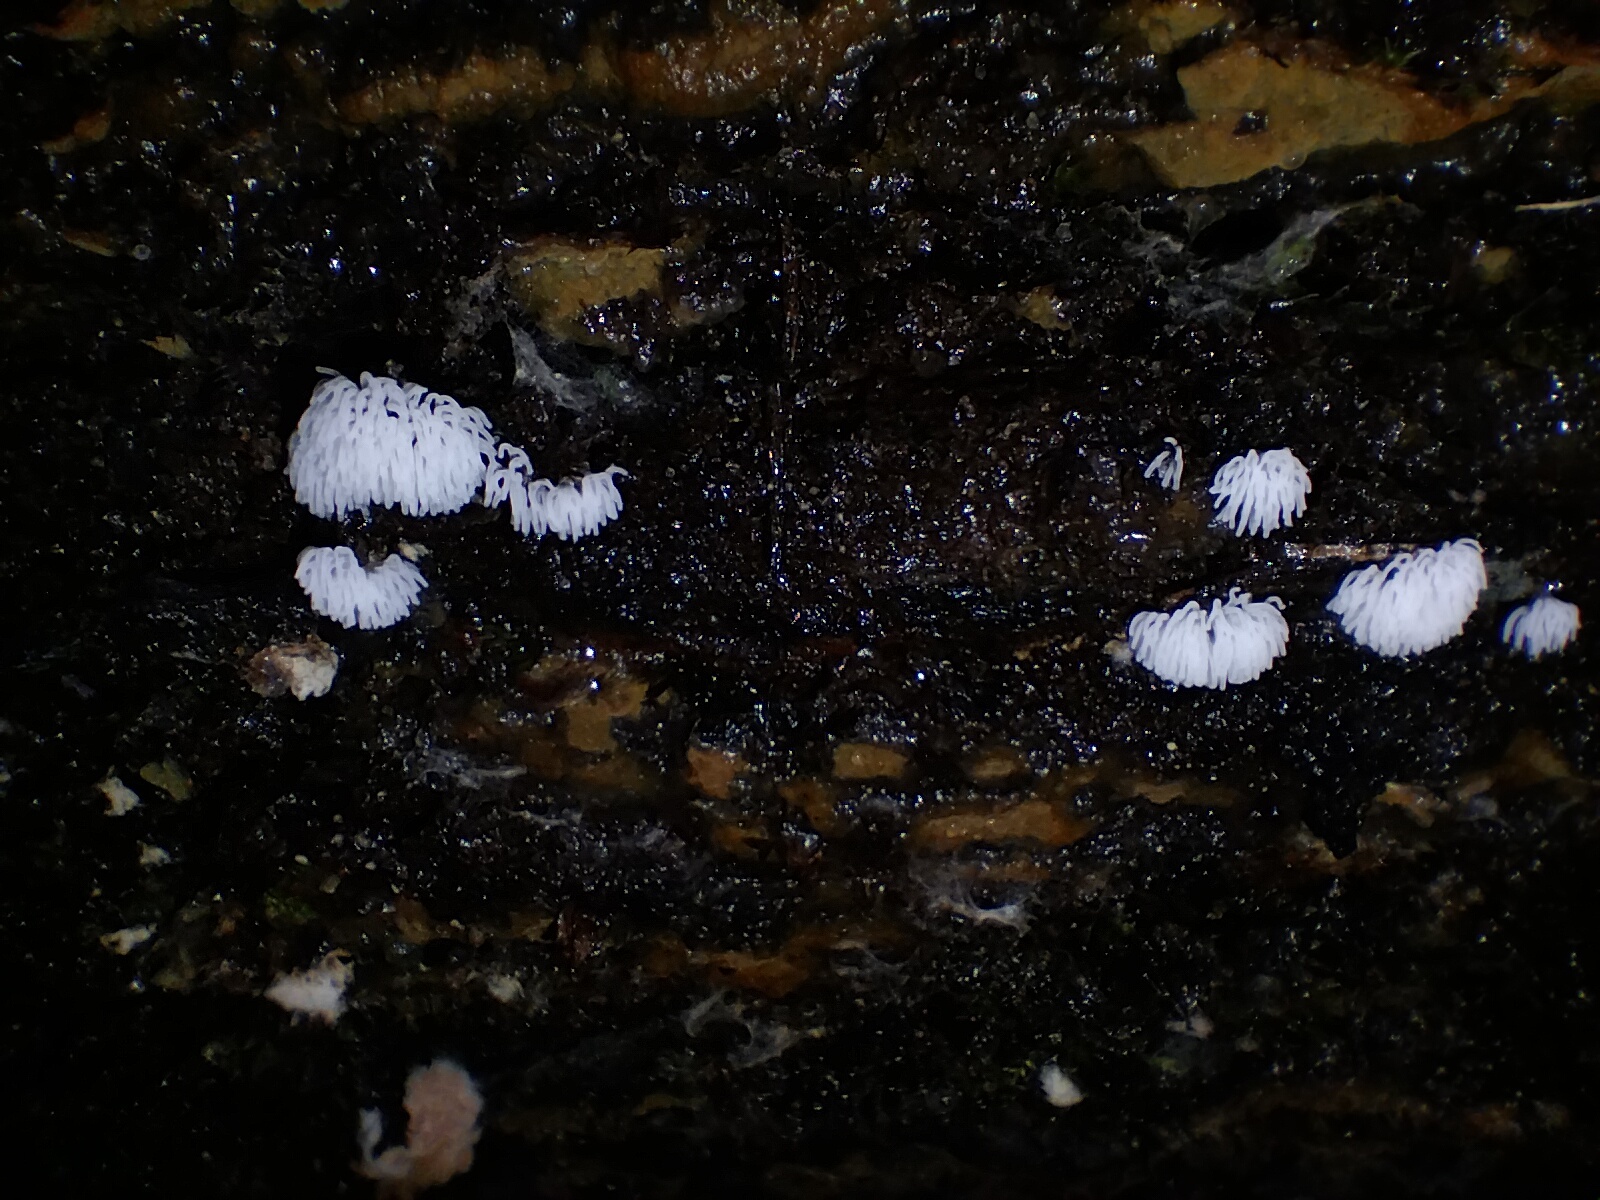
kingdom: Protozoa
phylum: Mycetozoa
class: Protosteliomycetes
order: Ceratiomyxales
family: Ceratiomyxaceae
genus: Ceratiomyxa
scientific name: Ceratiomyxa fruticulosa
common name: Honeycomb coral slime mold
